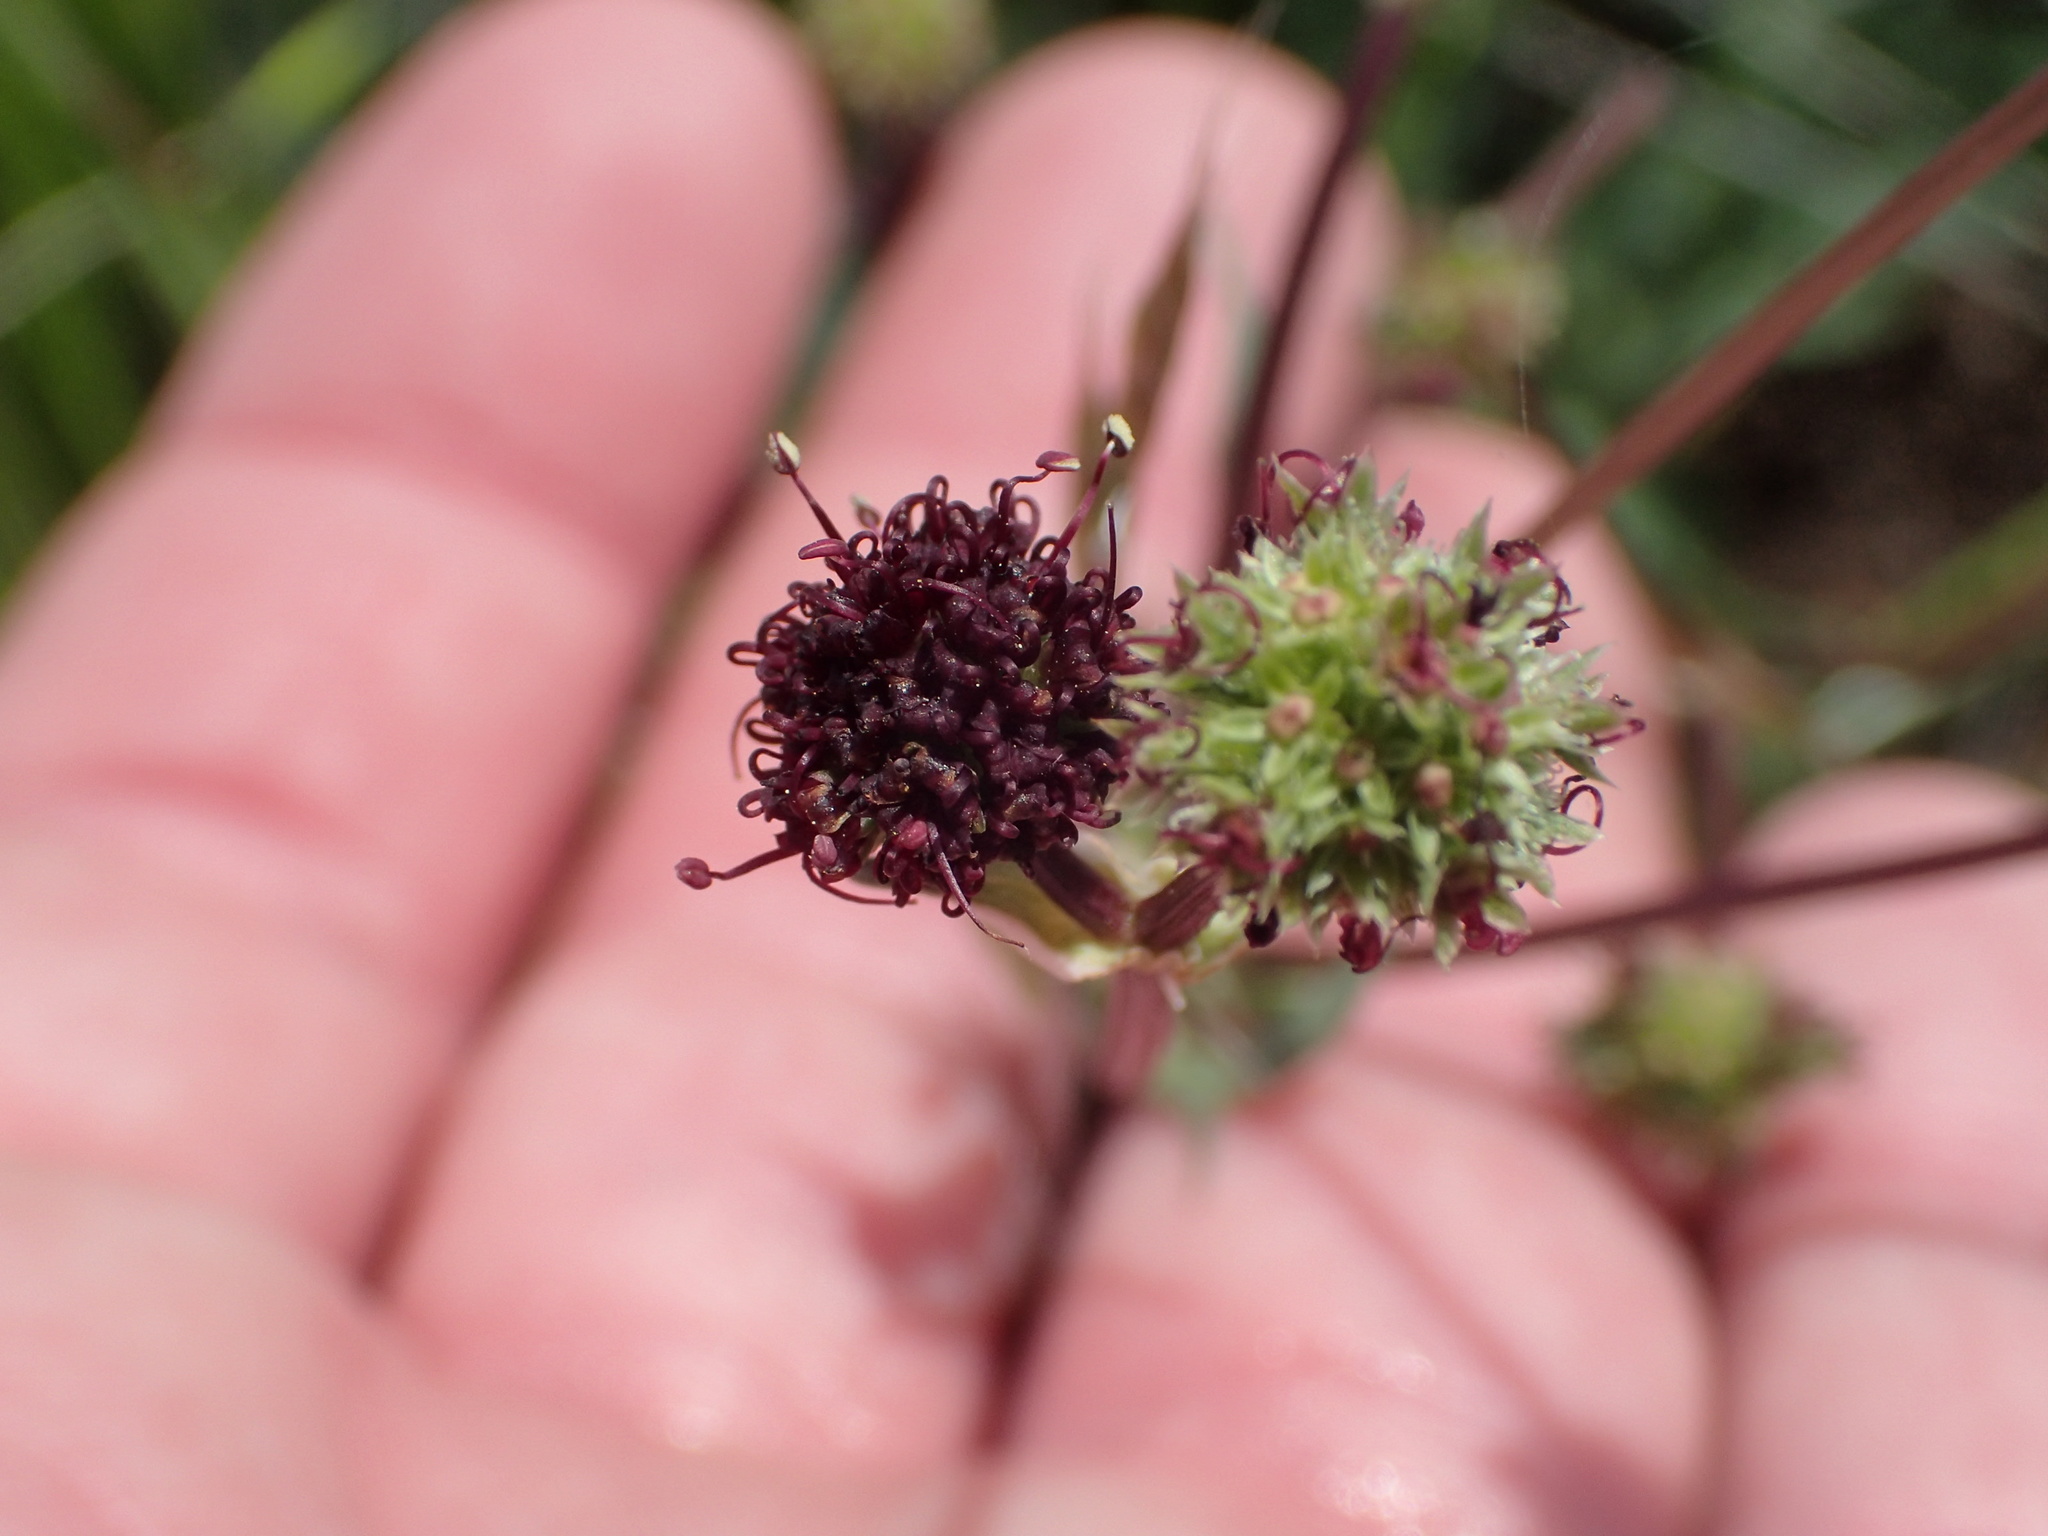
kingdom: Plantae
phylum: Tracheophyta
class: Magnoliopsida
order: Apiales
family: Apiaceae
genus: Sanicula
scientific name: Sanicula bipinnatifida
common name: Shoe-buttons
